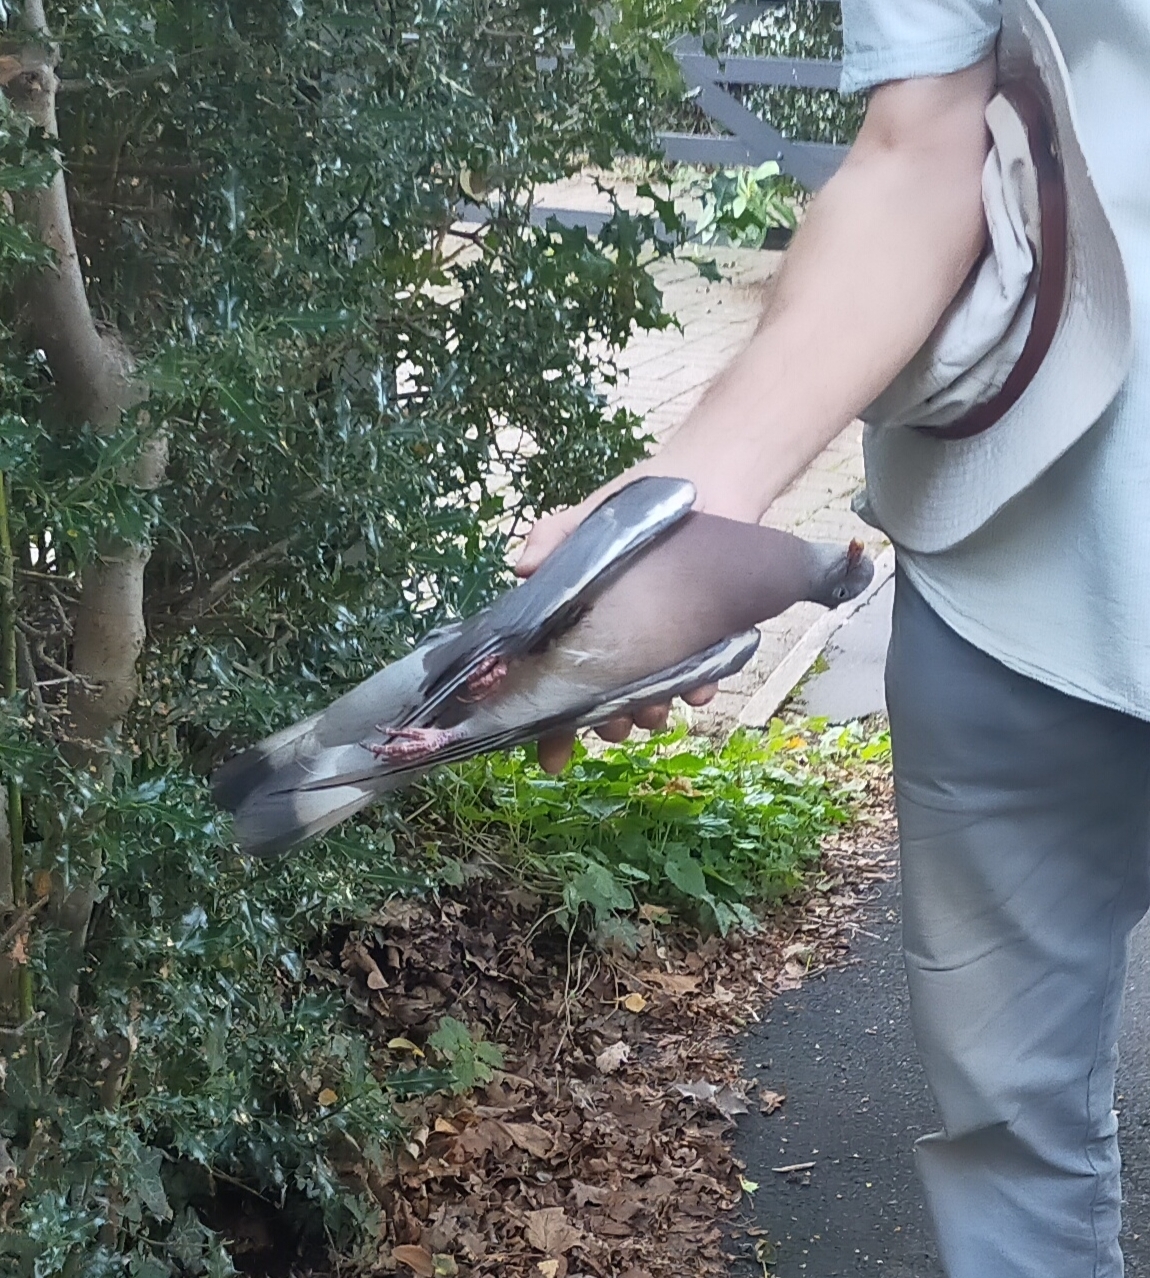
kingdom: Animalia
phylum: Chordata
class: Aves
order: Columbiformes
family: Columbidae
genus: Columba
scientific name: Columba palumbus
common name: Common wood pigeon
